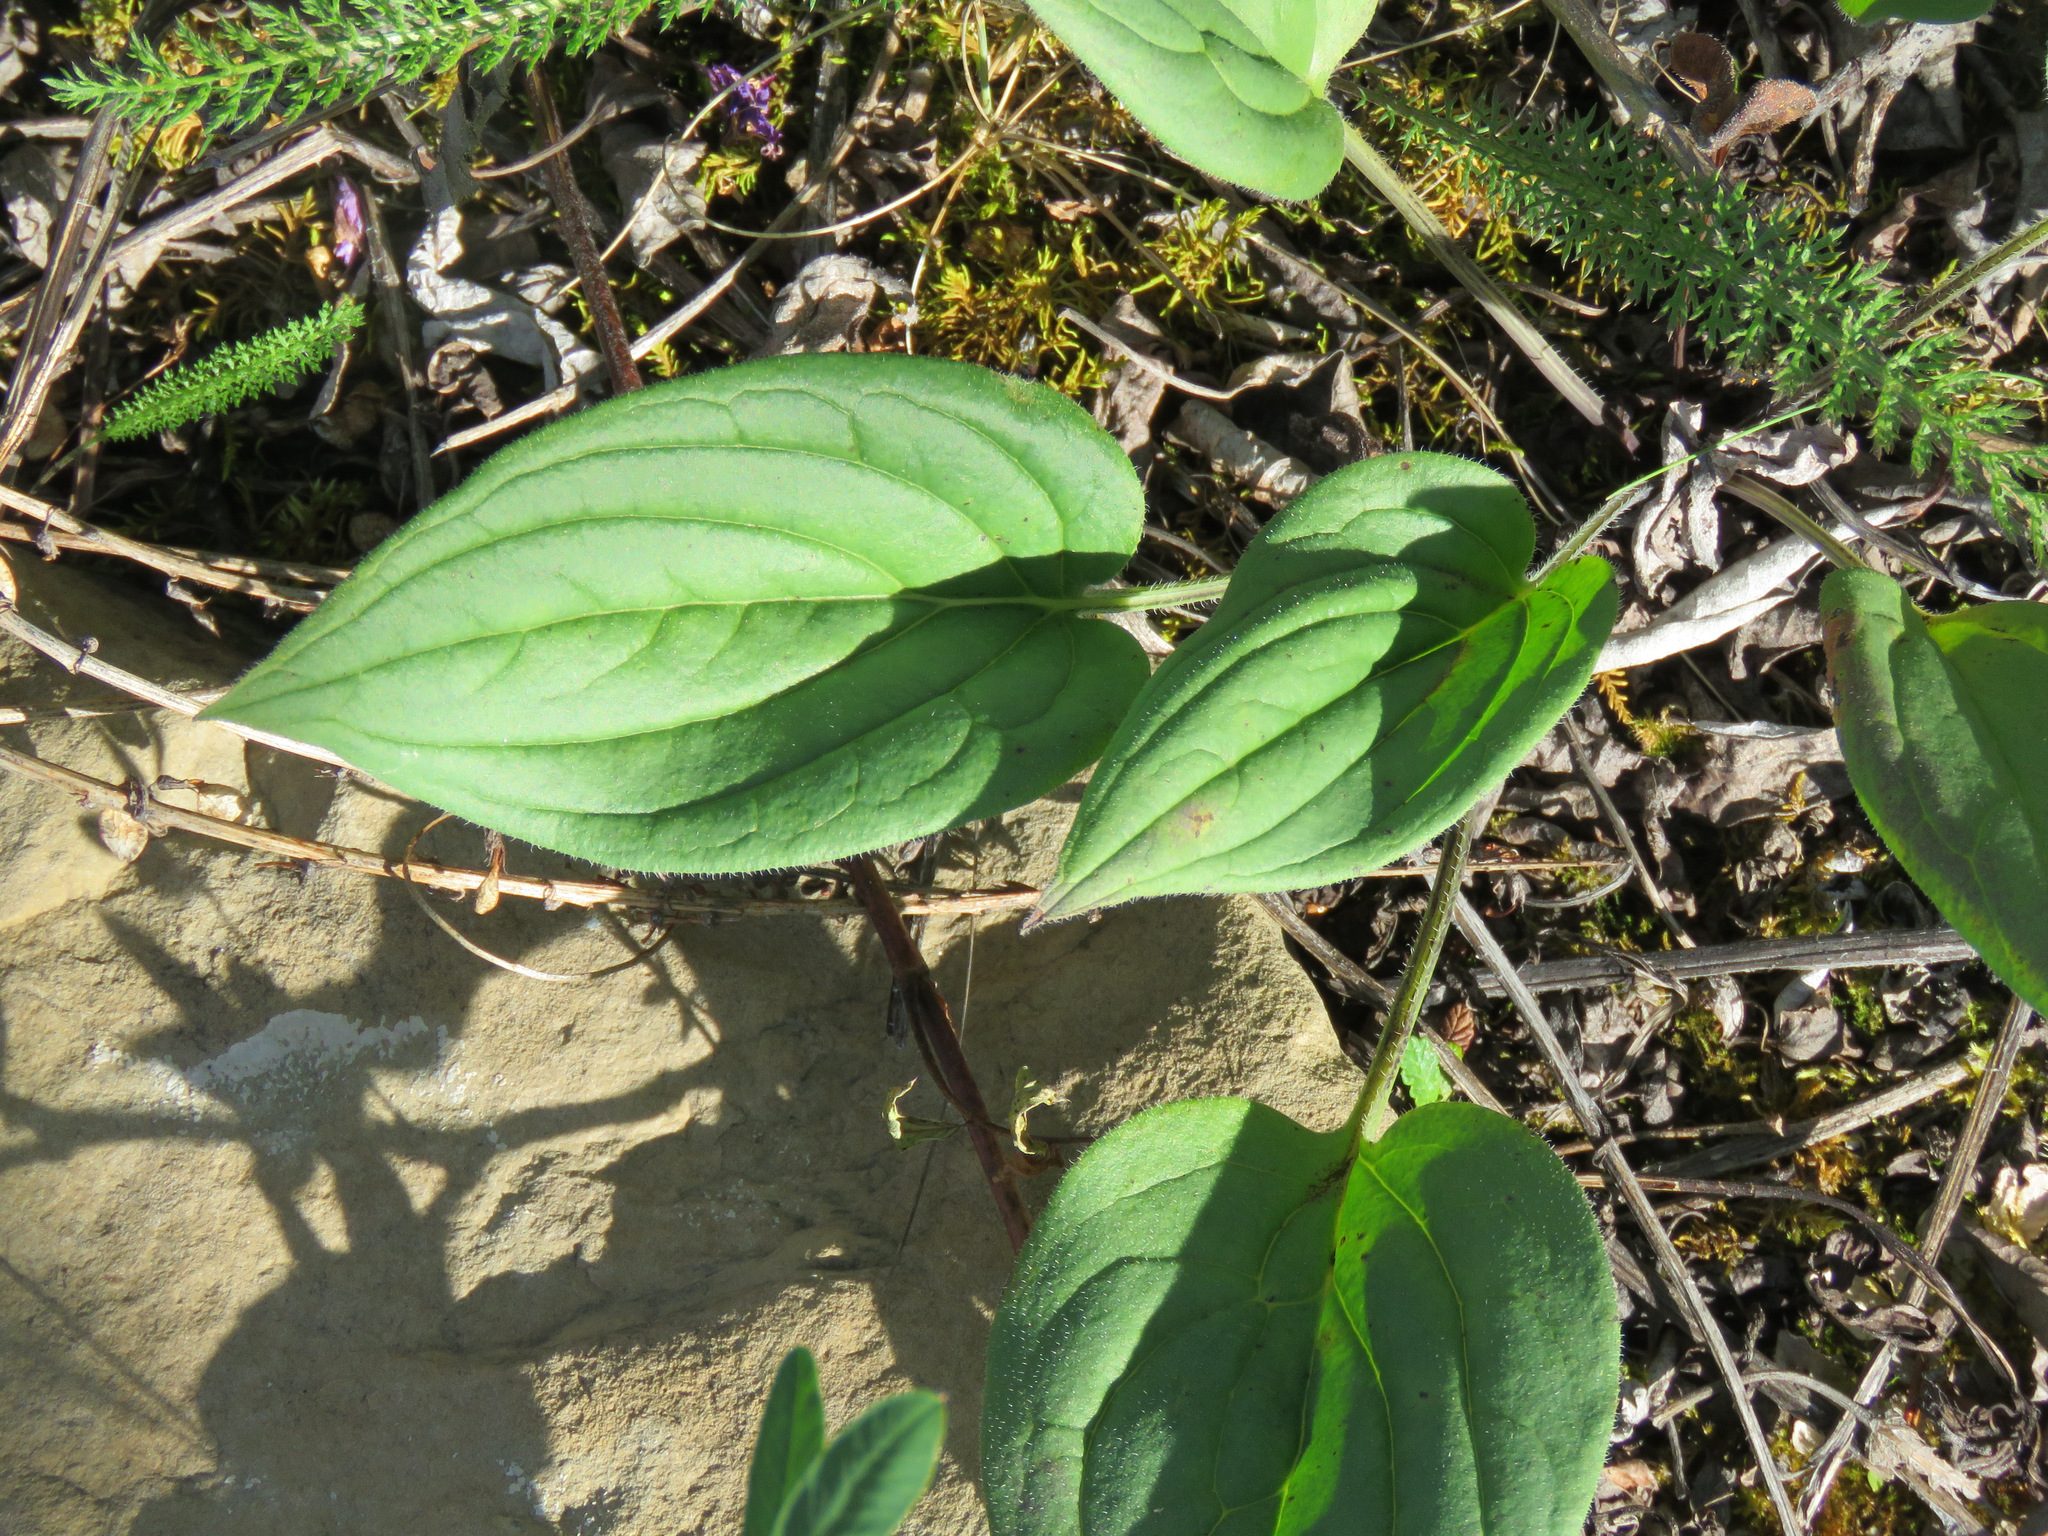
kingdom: Plantae
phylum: Tracheophyta
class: Magnoliopsida
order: Boraginales
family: Boraginaceae
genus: Mertensia
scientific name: Mertensia paniculata
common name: Panicled bluebells
